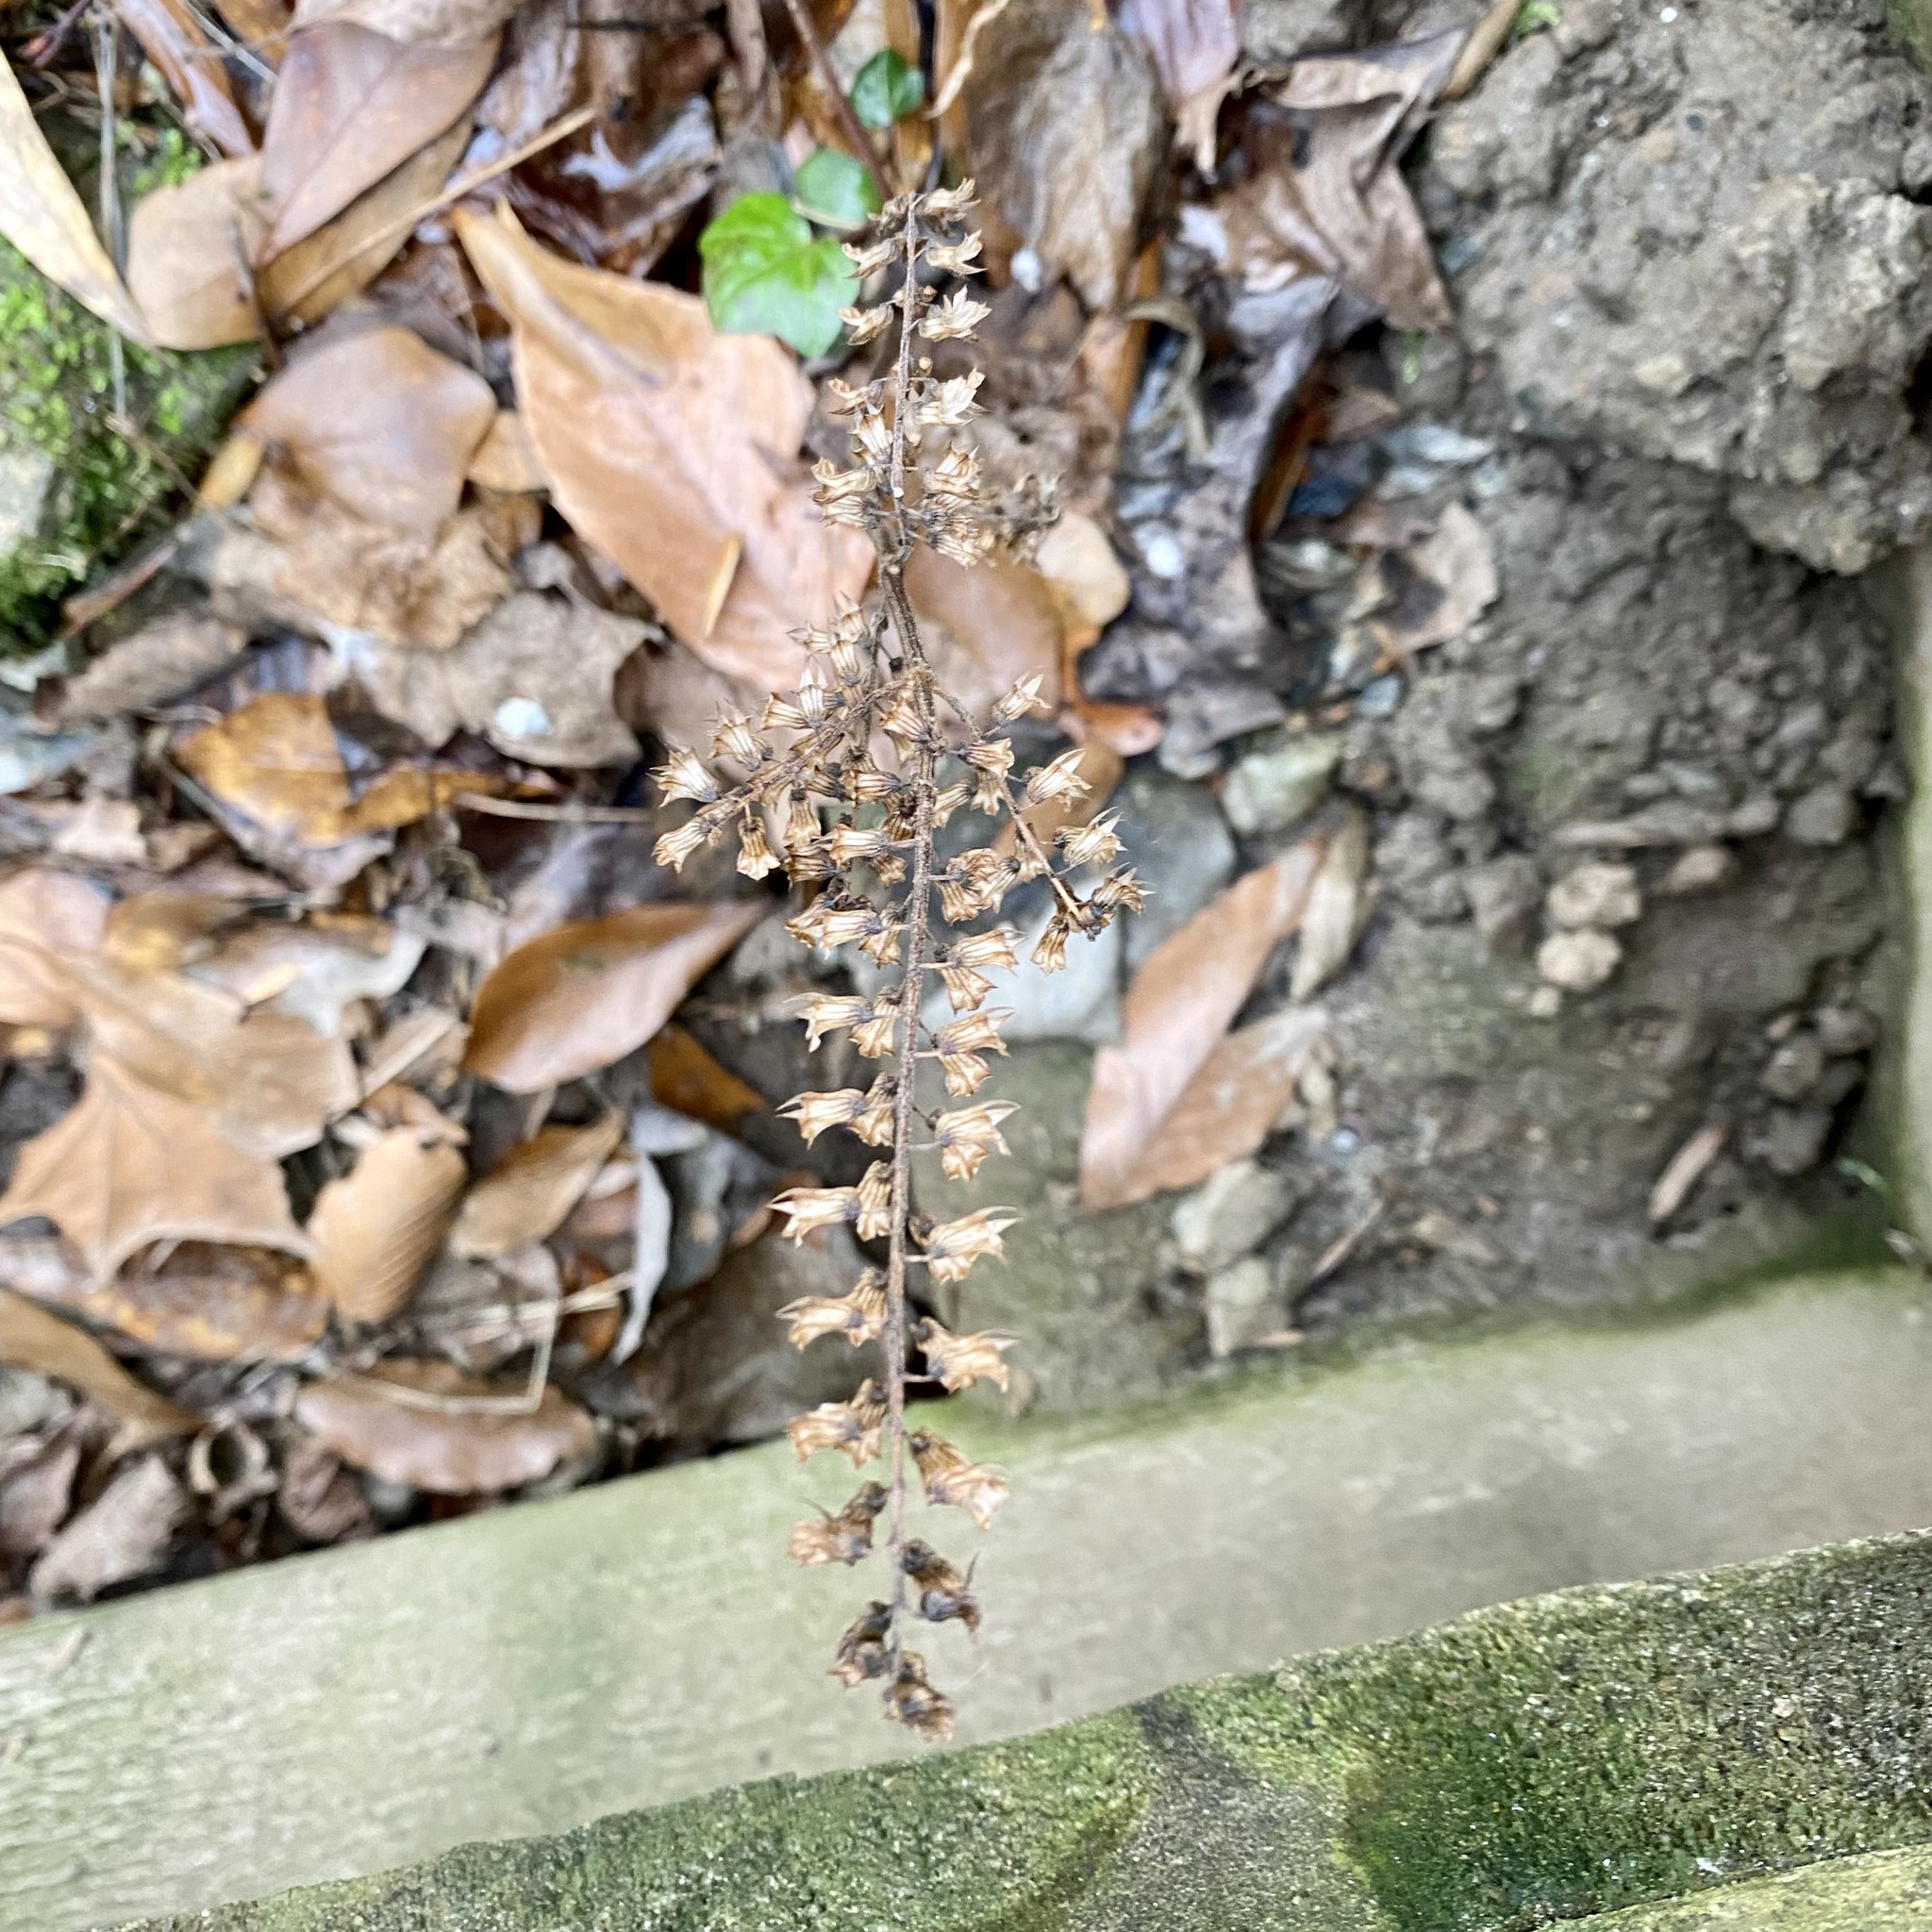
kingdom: Plantae
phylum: Tracheophyta
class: Magnoliopsida
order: Lamiales
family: Lamiaceae
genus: Perilla
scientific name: Perilla frutescens
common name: Perilla
